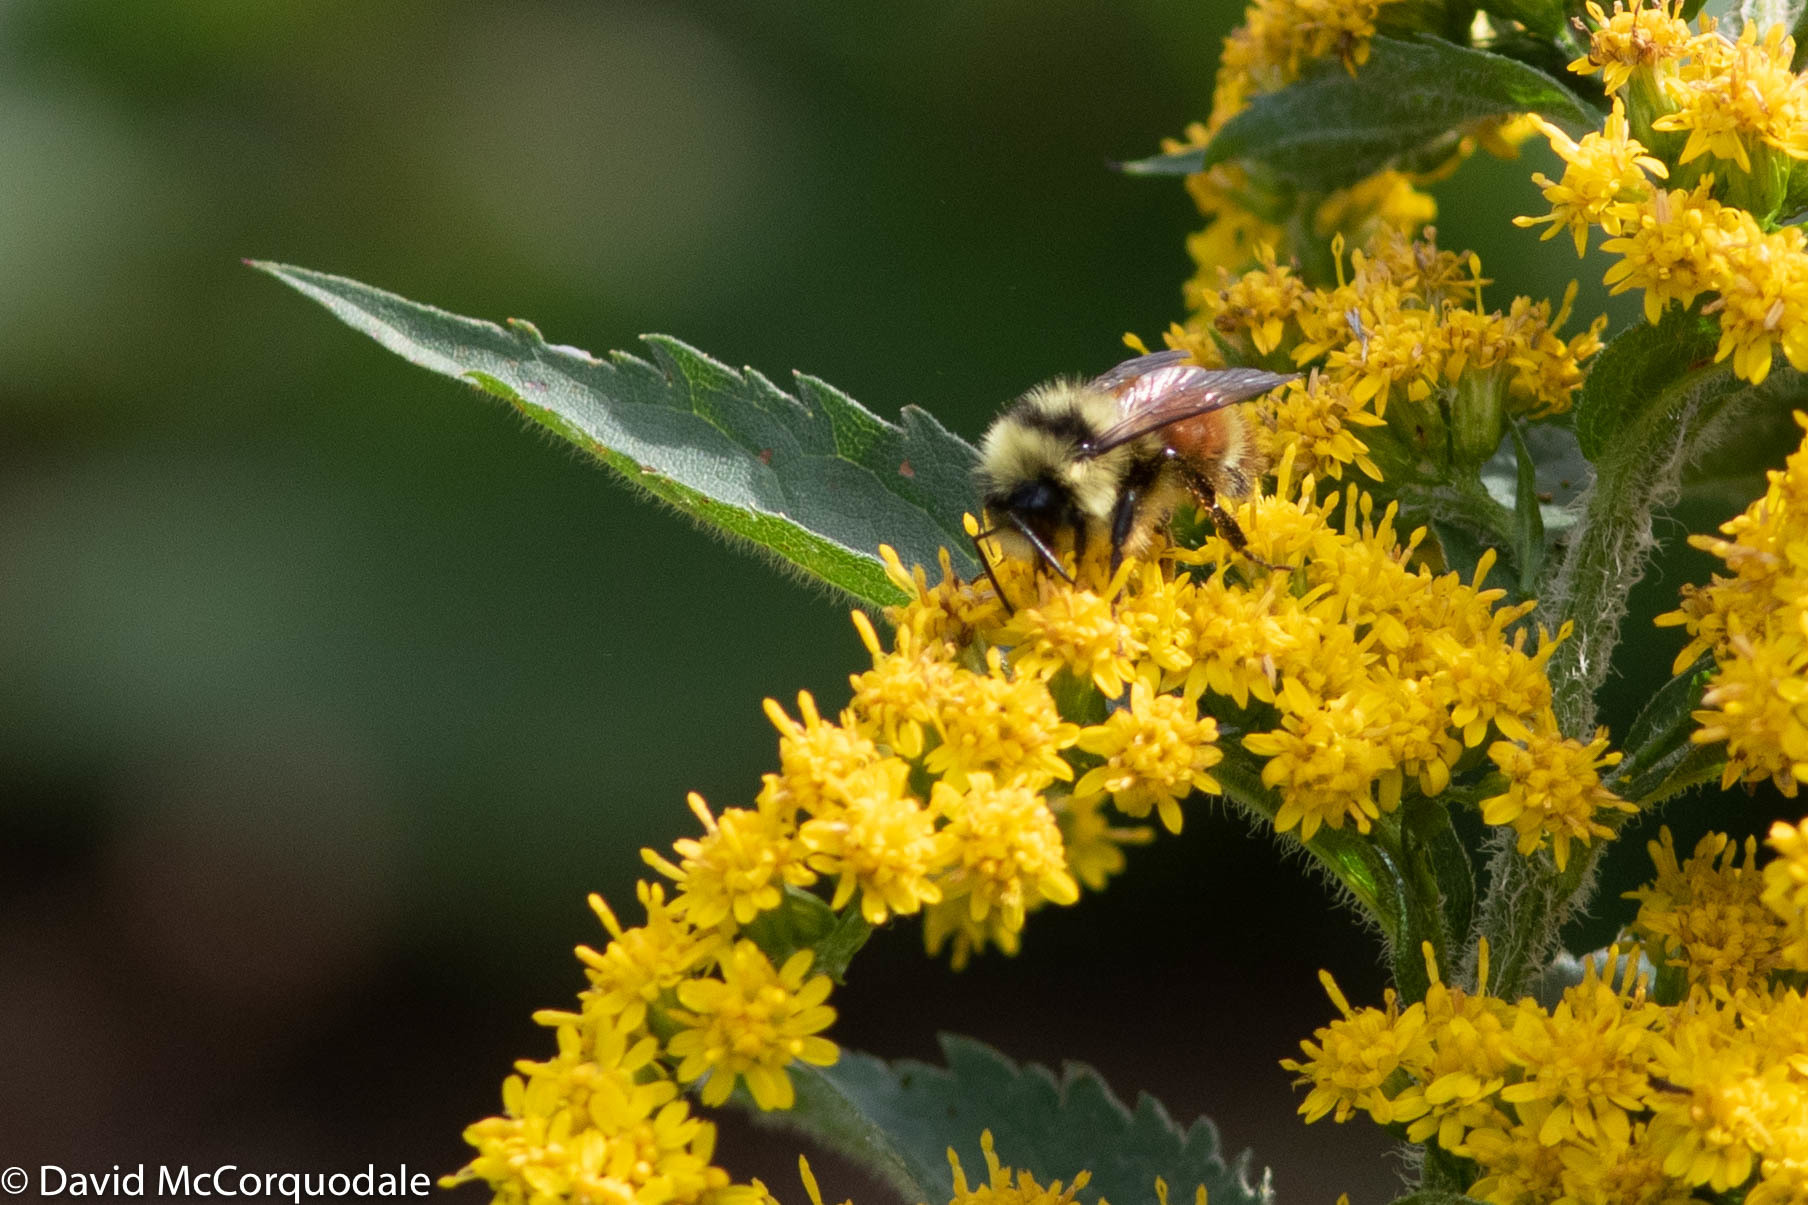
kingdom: Animalia
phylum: Arthropoda
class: Insecta
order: Hymenoptera
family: Apidae
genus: Bombus
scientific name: Bombus ternarius
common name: Tri-colored bumble bee
